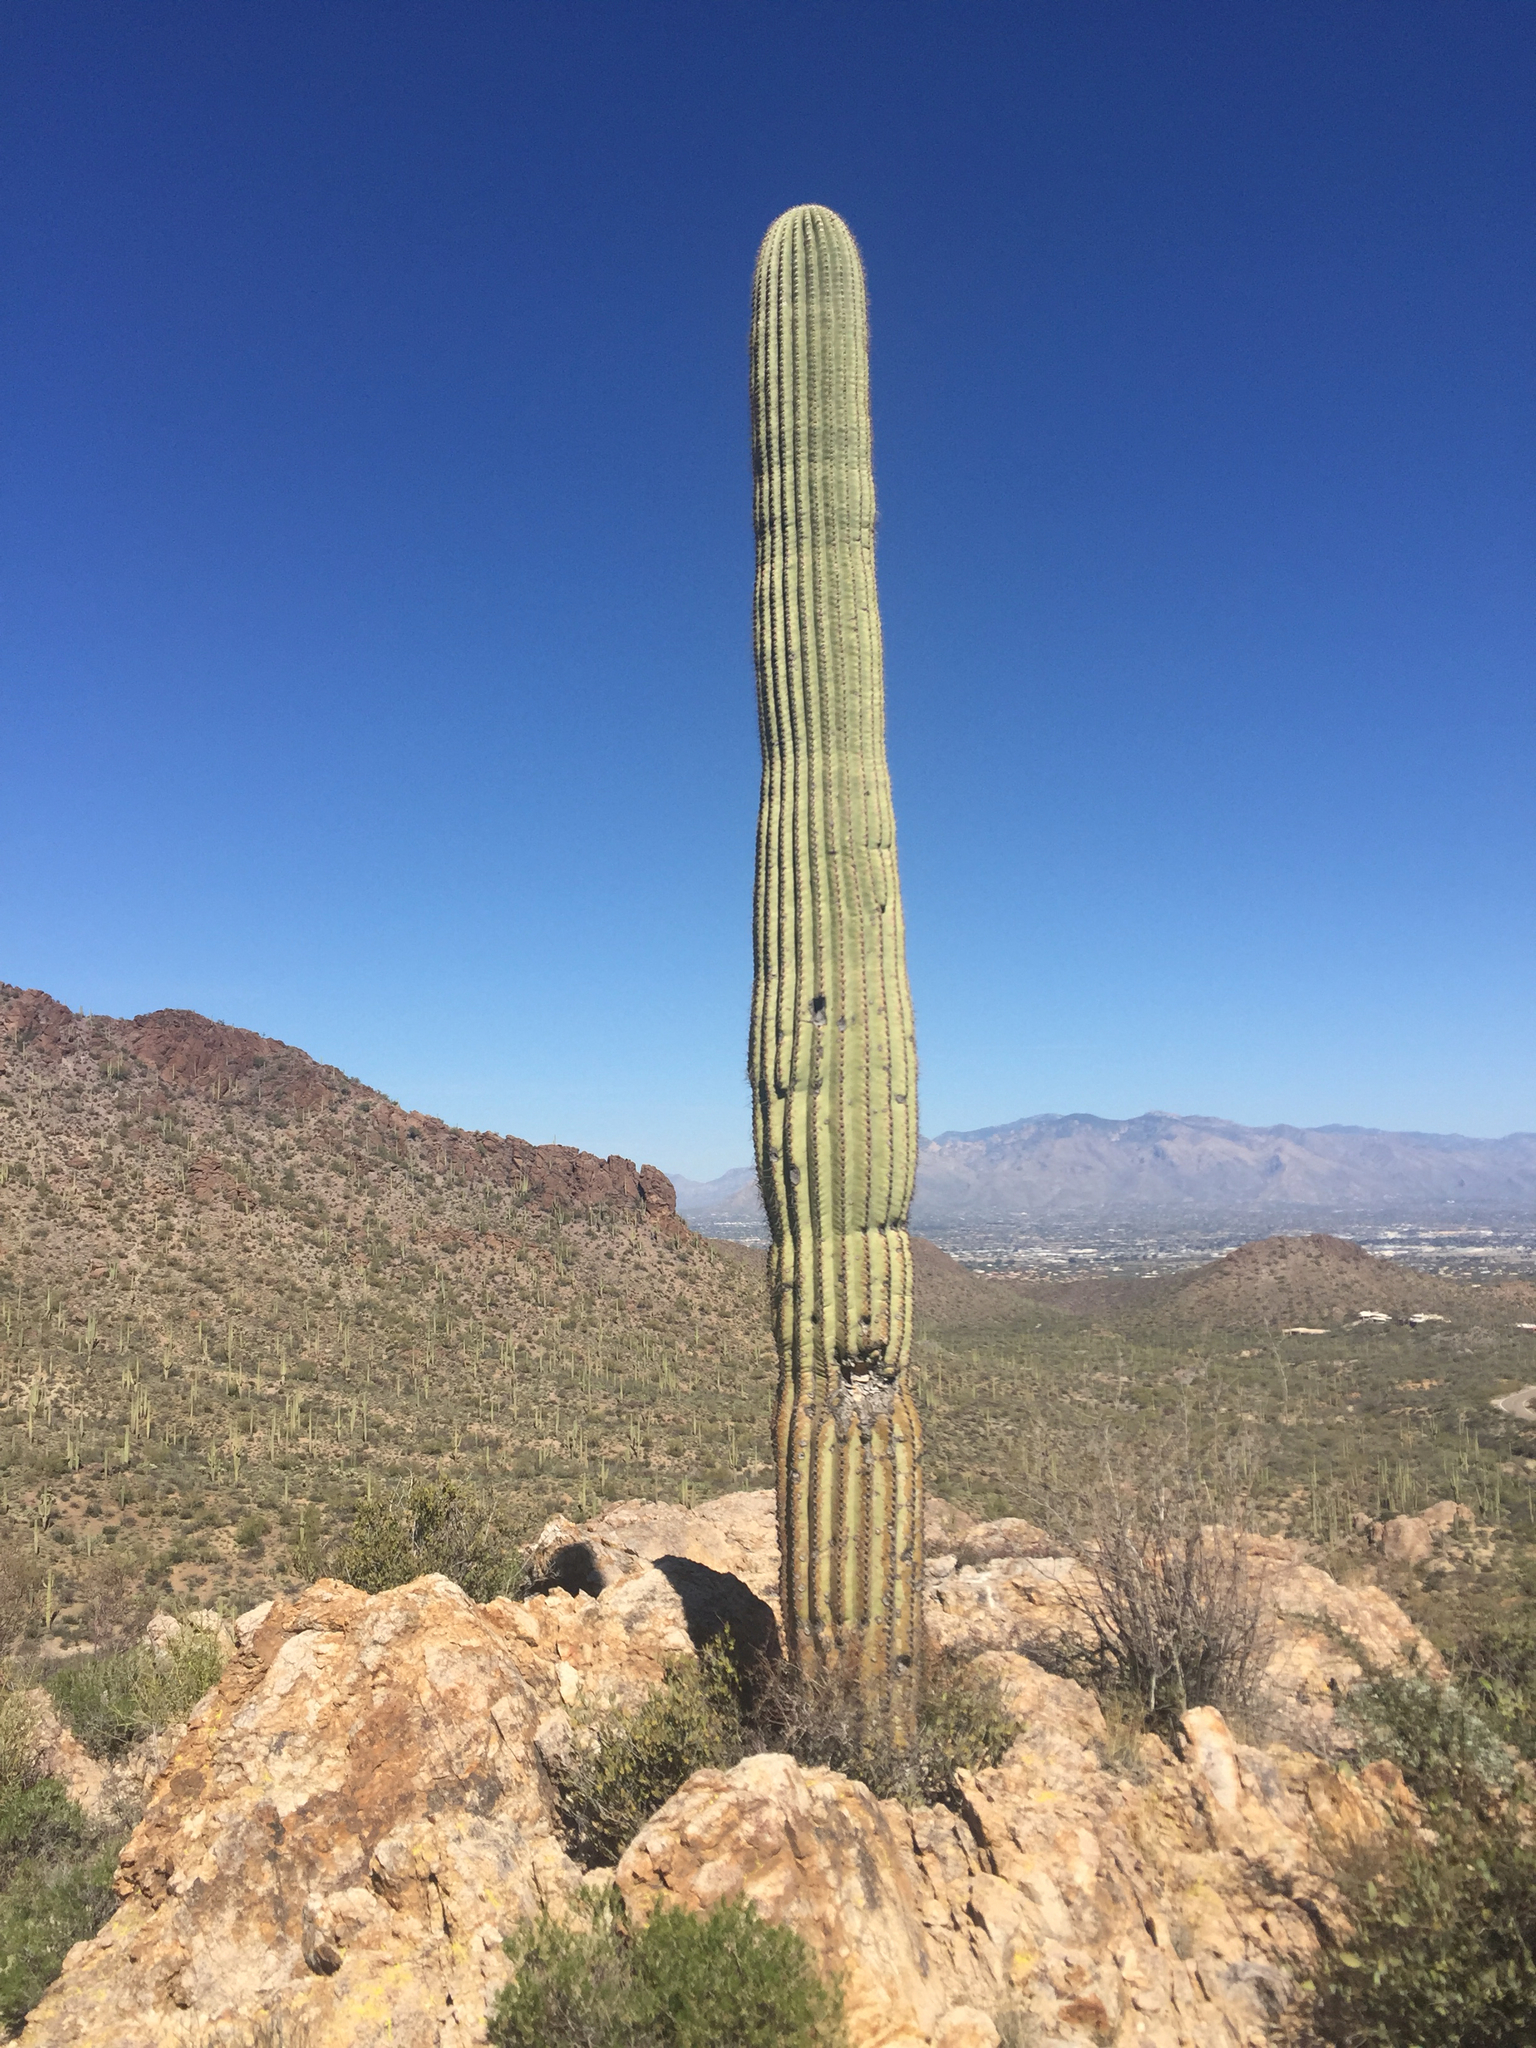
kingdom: Plantae
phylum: Tracheophyta
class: Magnoliopsida
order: Caryophyllales
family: Cactaceae
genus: Carnegiea
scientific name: Carnegiea gigantea
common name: Saguaro
